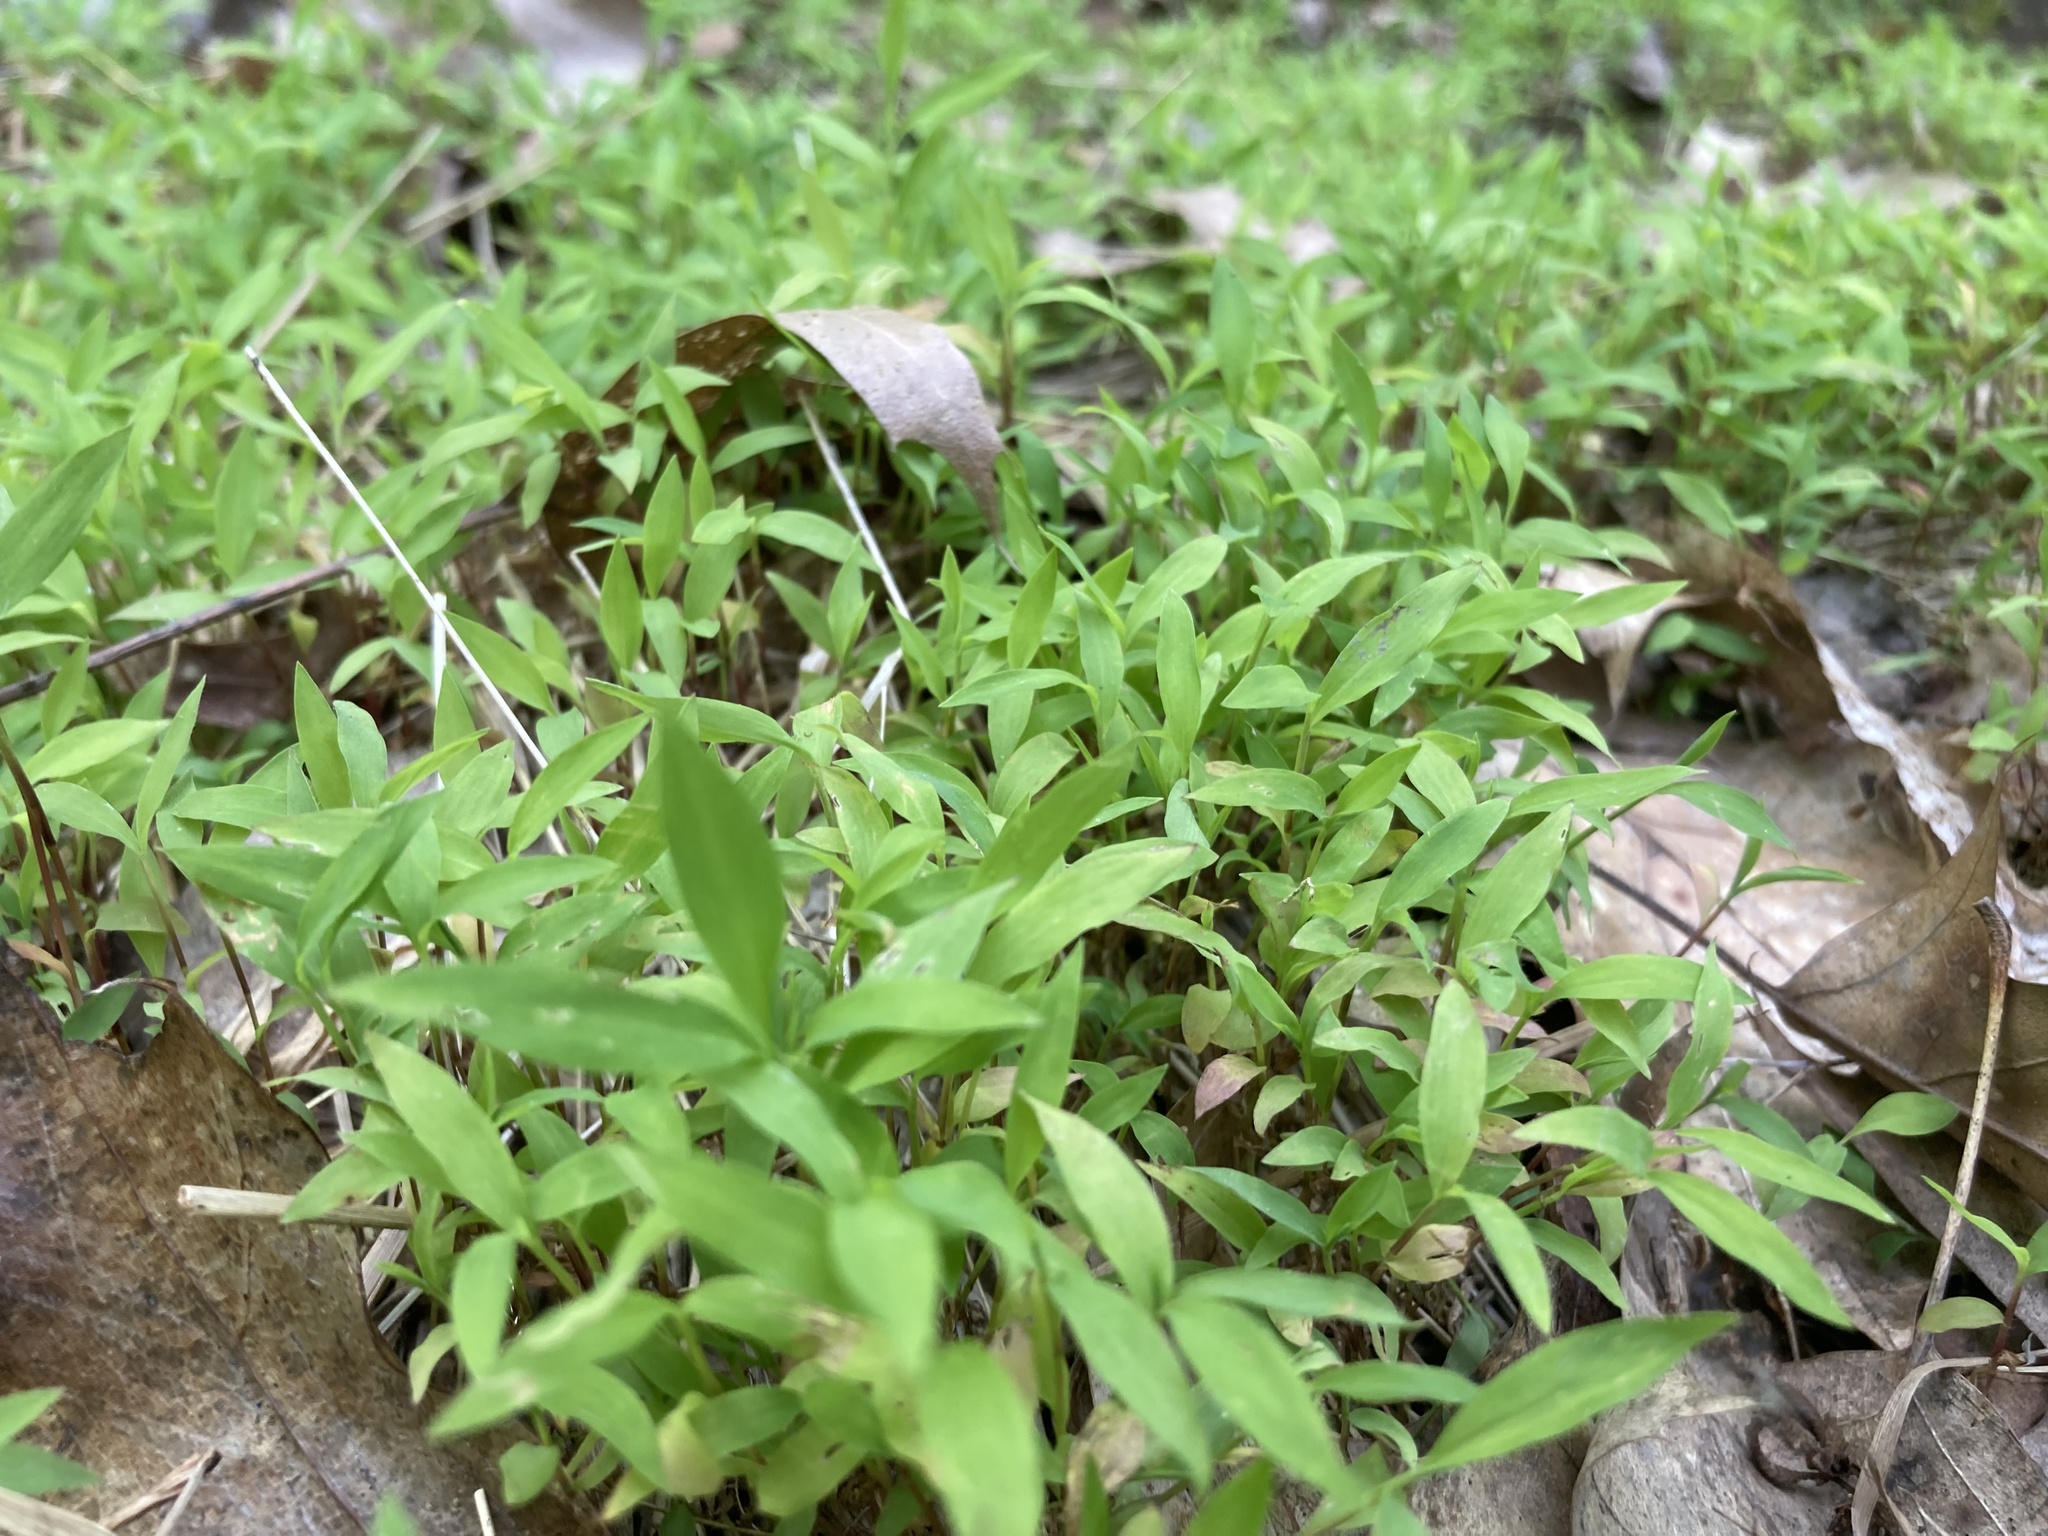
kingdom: Plantae
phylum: Tracheophyta
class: Liliopsida
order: Poales
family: Poaceae
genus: Microstegium
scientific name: Microstegium vimineum
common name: Japanese stiltgrass
